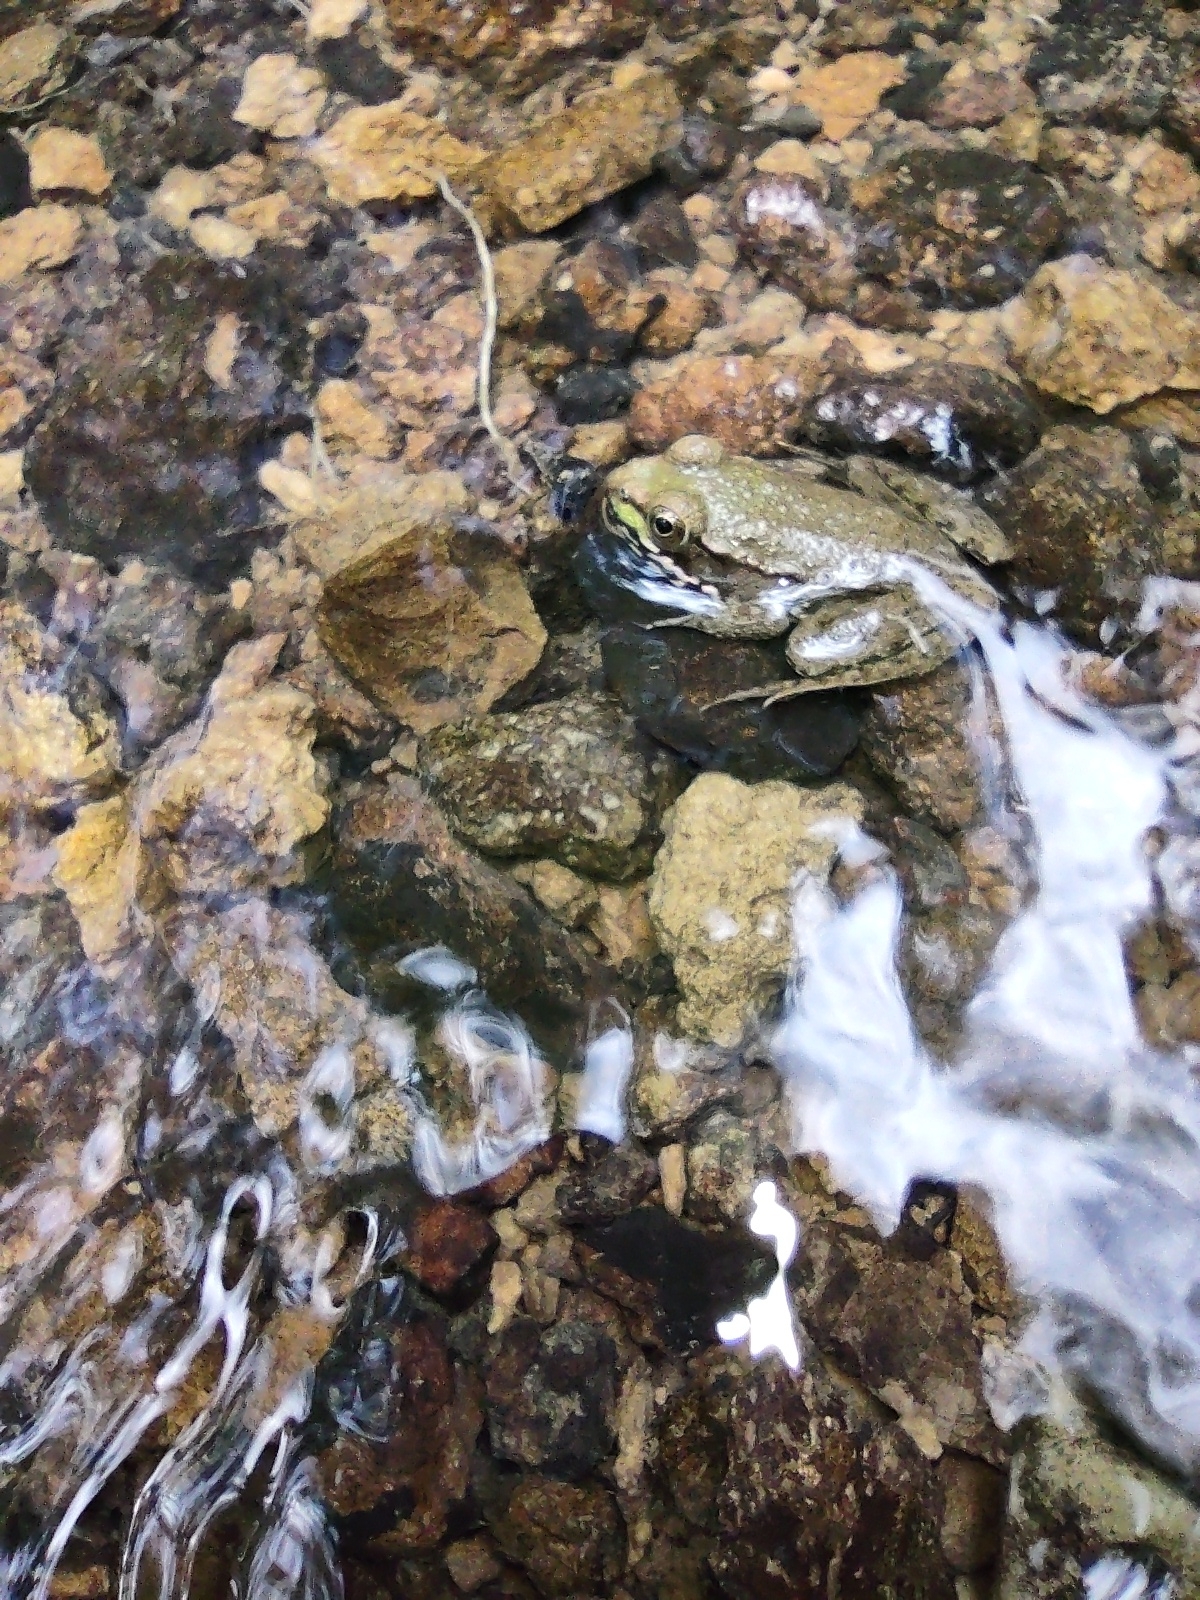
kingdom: Animalia
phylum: Chordata
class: Amphibia
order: Anura
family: Ranidae
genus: Lithobates
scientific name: Lithobates clamitans
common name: Green frog
